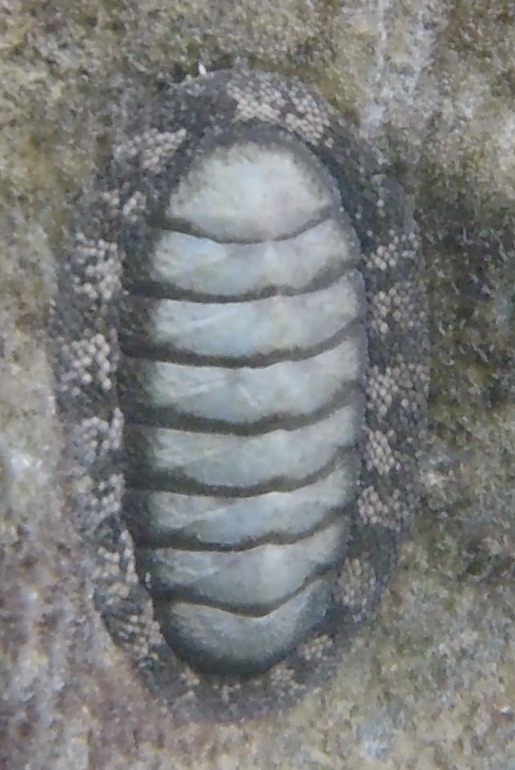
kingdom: Animalia
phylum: Mollusca
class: Polyplacophora
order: Chitonida
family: Chitonidae
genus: Chiton
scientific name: Chiton tuberculatus
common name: West indian green chiton
